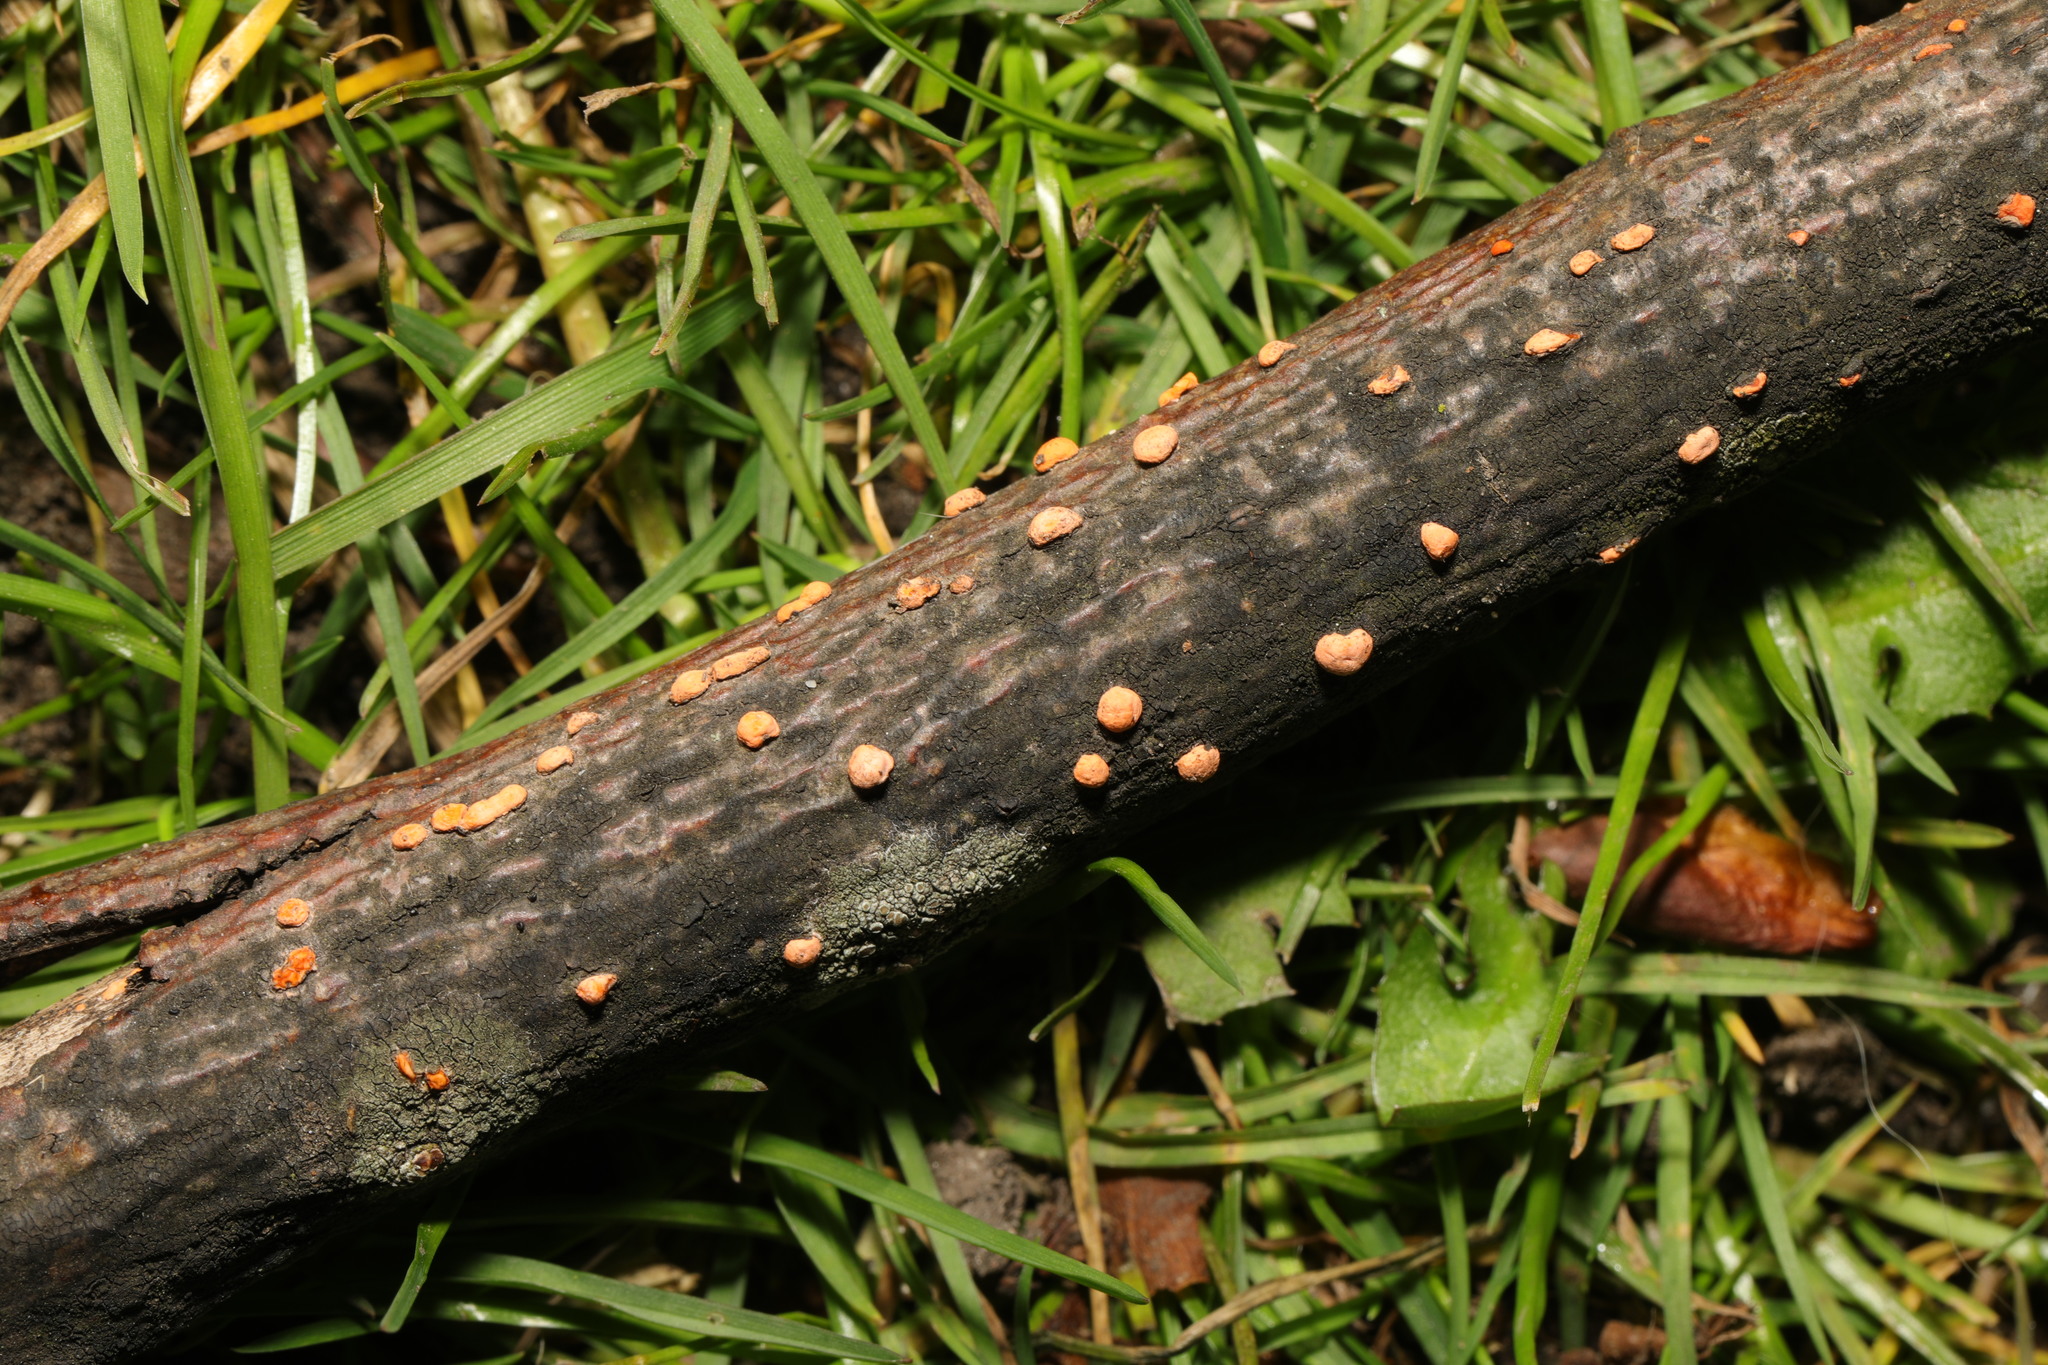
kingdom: Fungi
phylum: Ascomycota
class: Sordariomycetes
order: Hypocreales
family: Nectriaceae
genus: Nectria
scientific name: Nectria cinnabarina
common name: Coral spot
